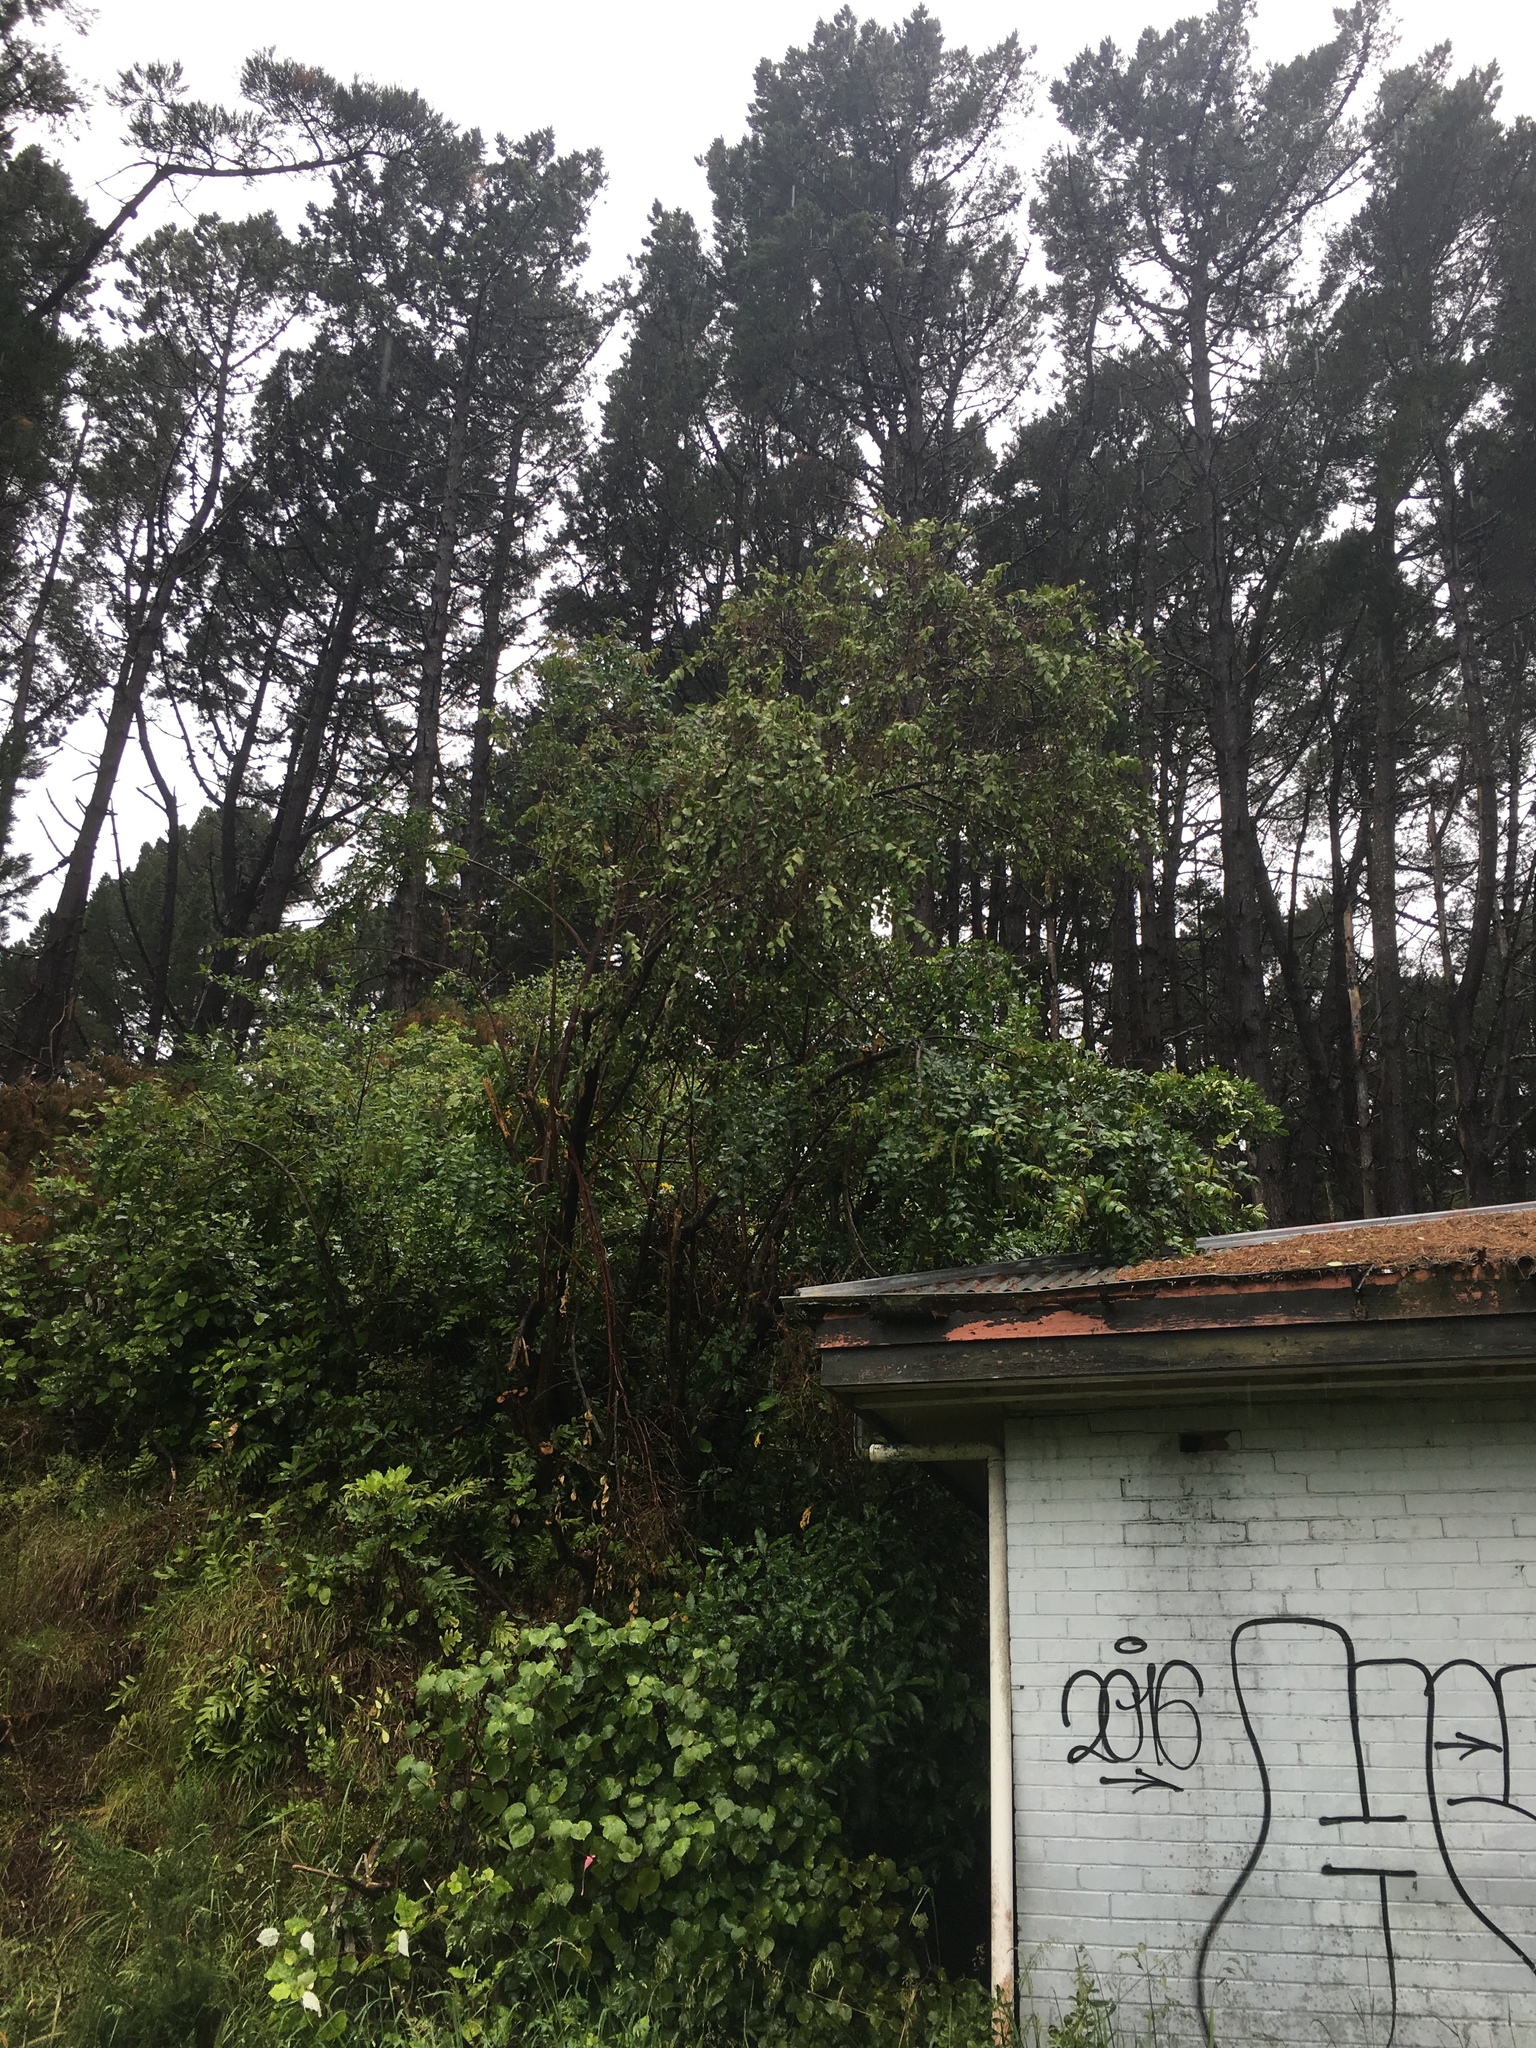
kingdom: Plantae
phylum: Tracheophyta
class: Magnoliopsida
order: Cucurbitales
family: Coriariaceae
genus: Coriaria
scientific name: Coriaria arborea
